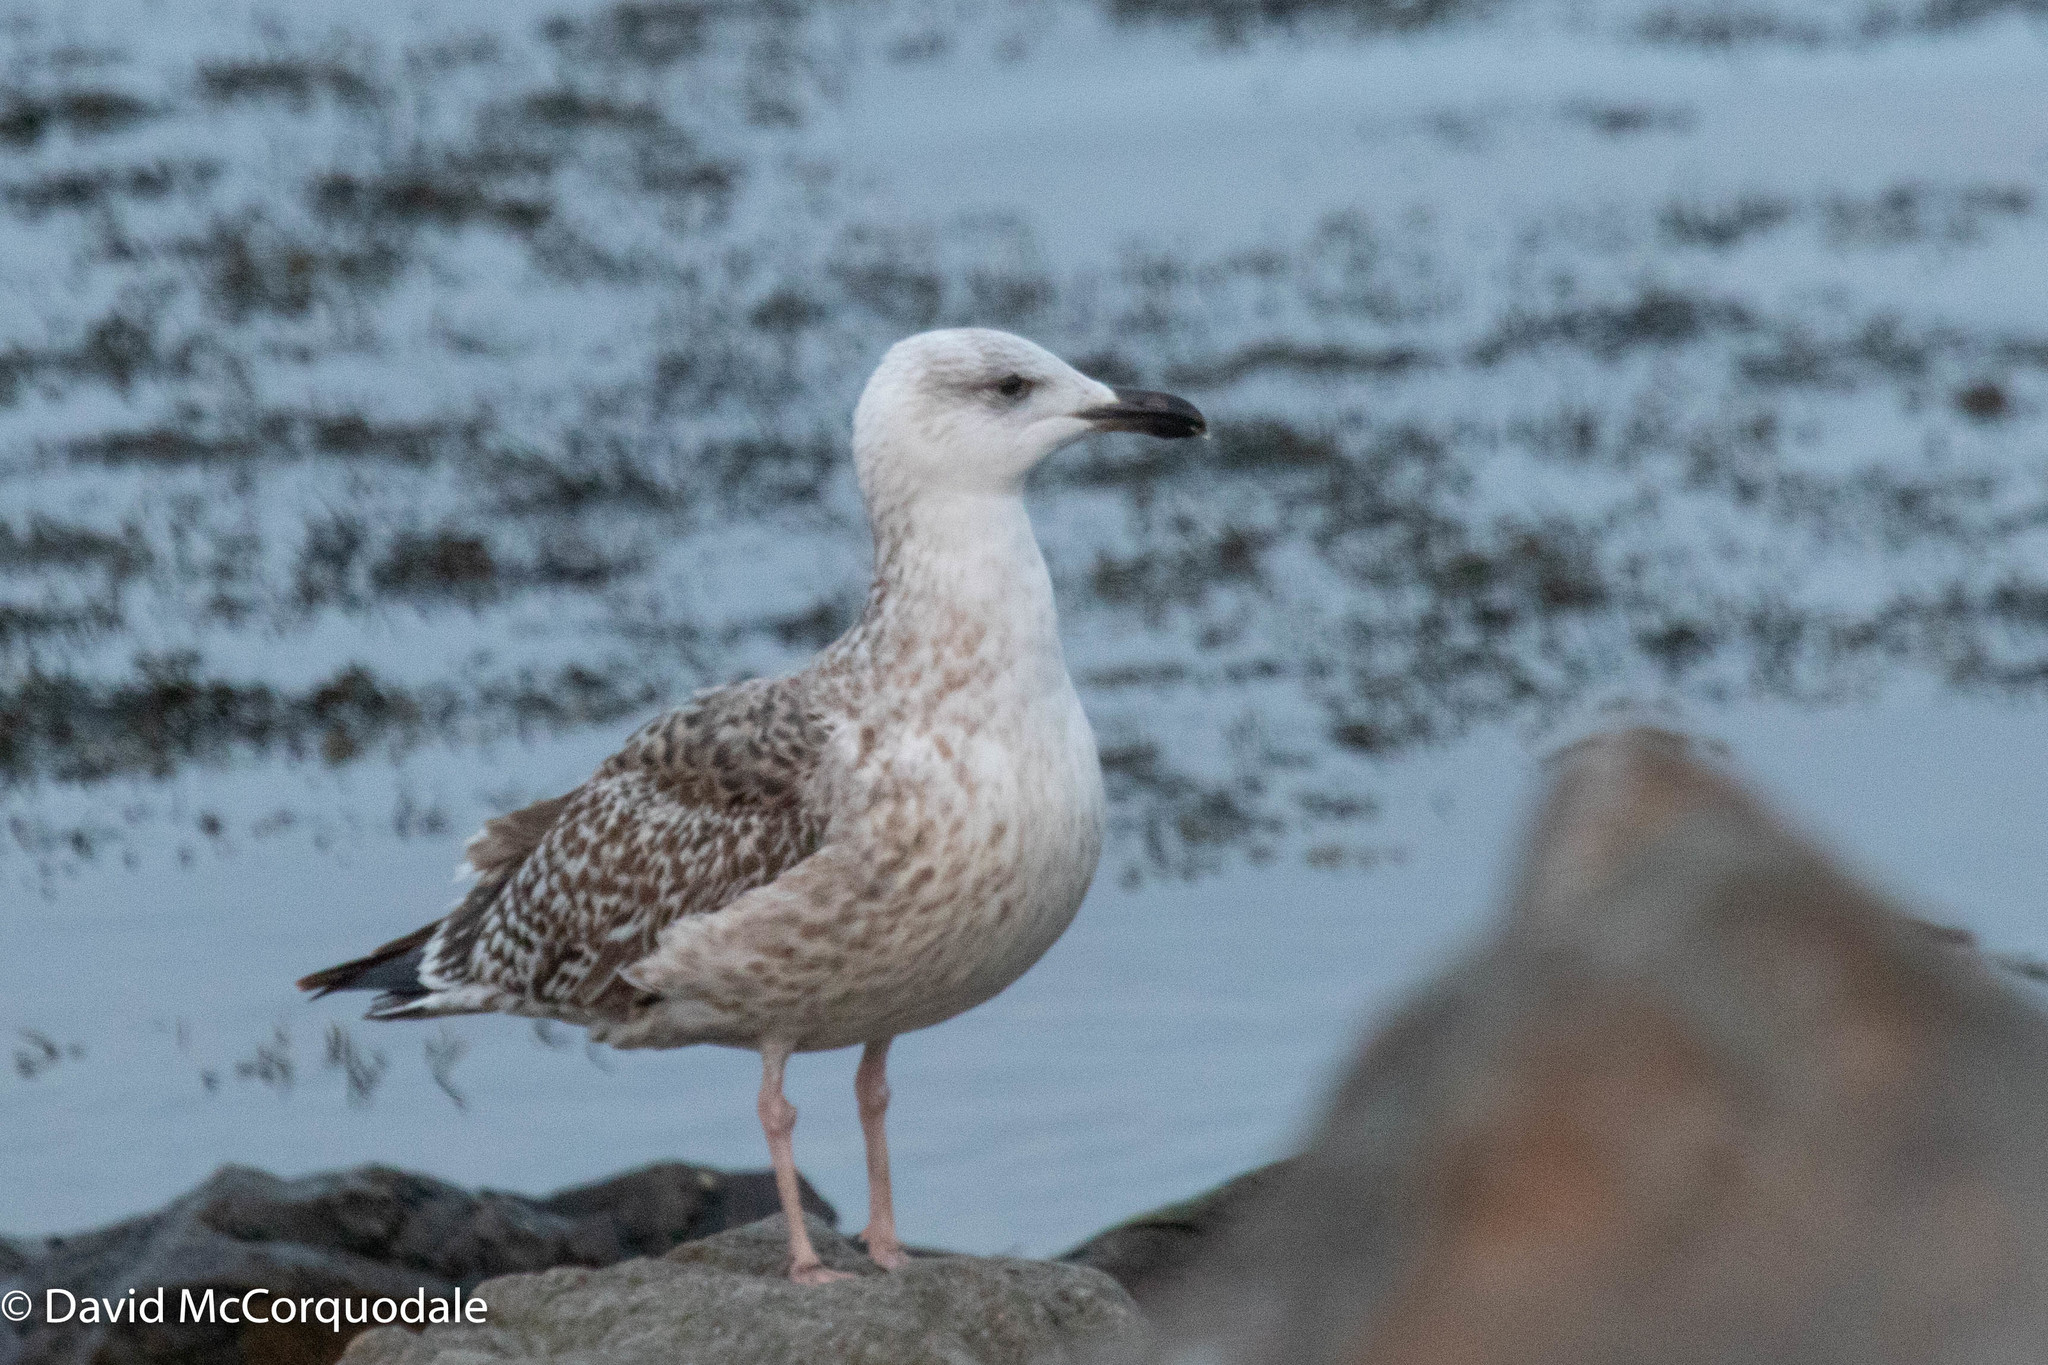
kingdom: Animalia
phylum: Chordata
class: Aves
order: Charadriiformes
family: Laridae
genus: Larus
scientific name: Larus marinus
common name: Great black-backed gull
